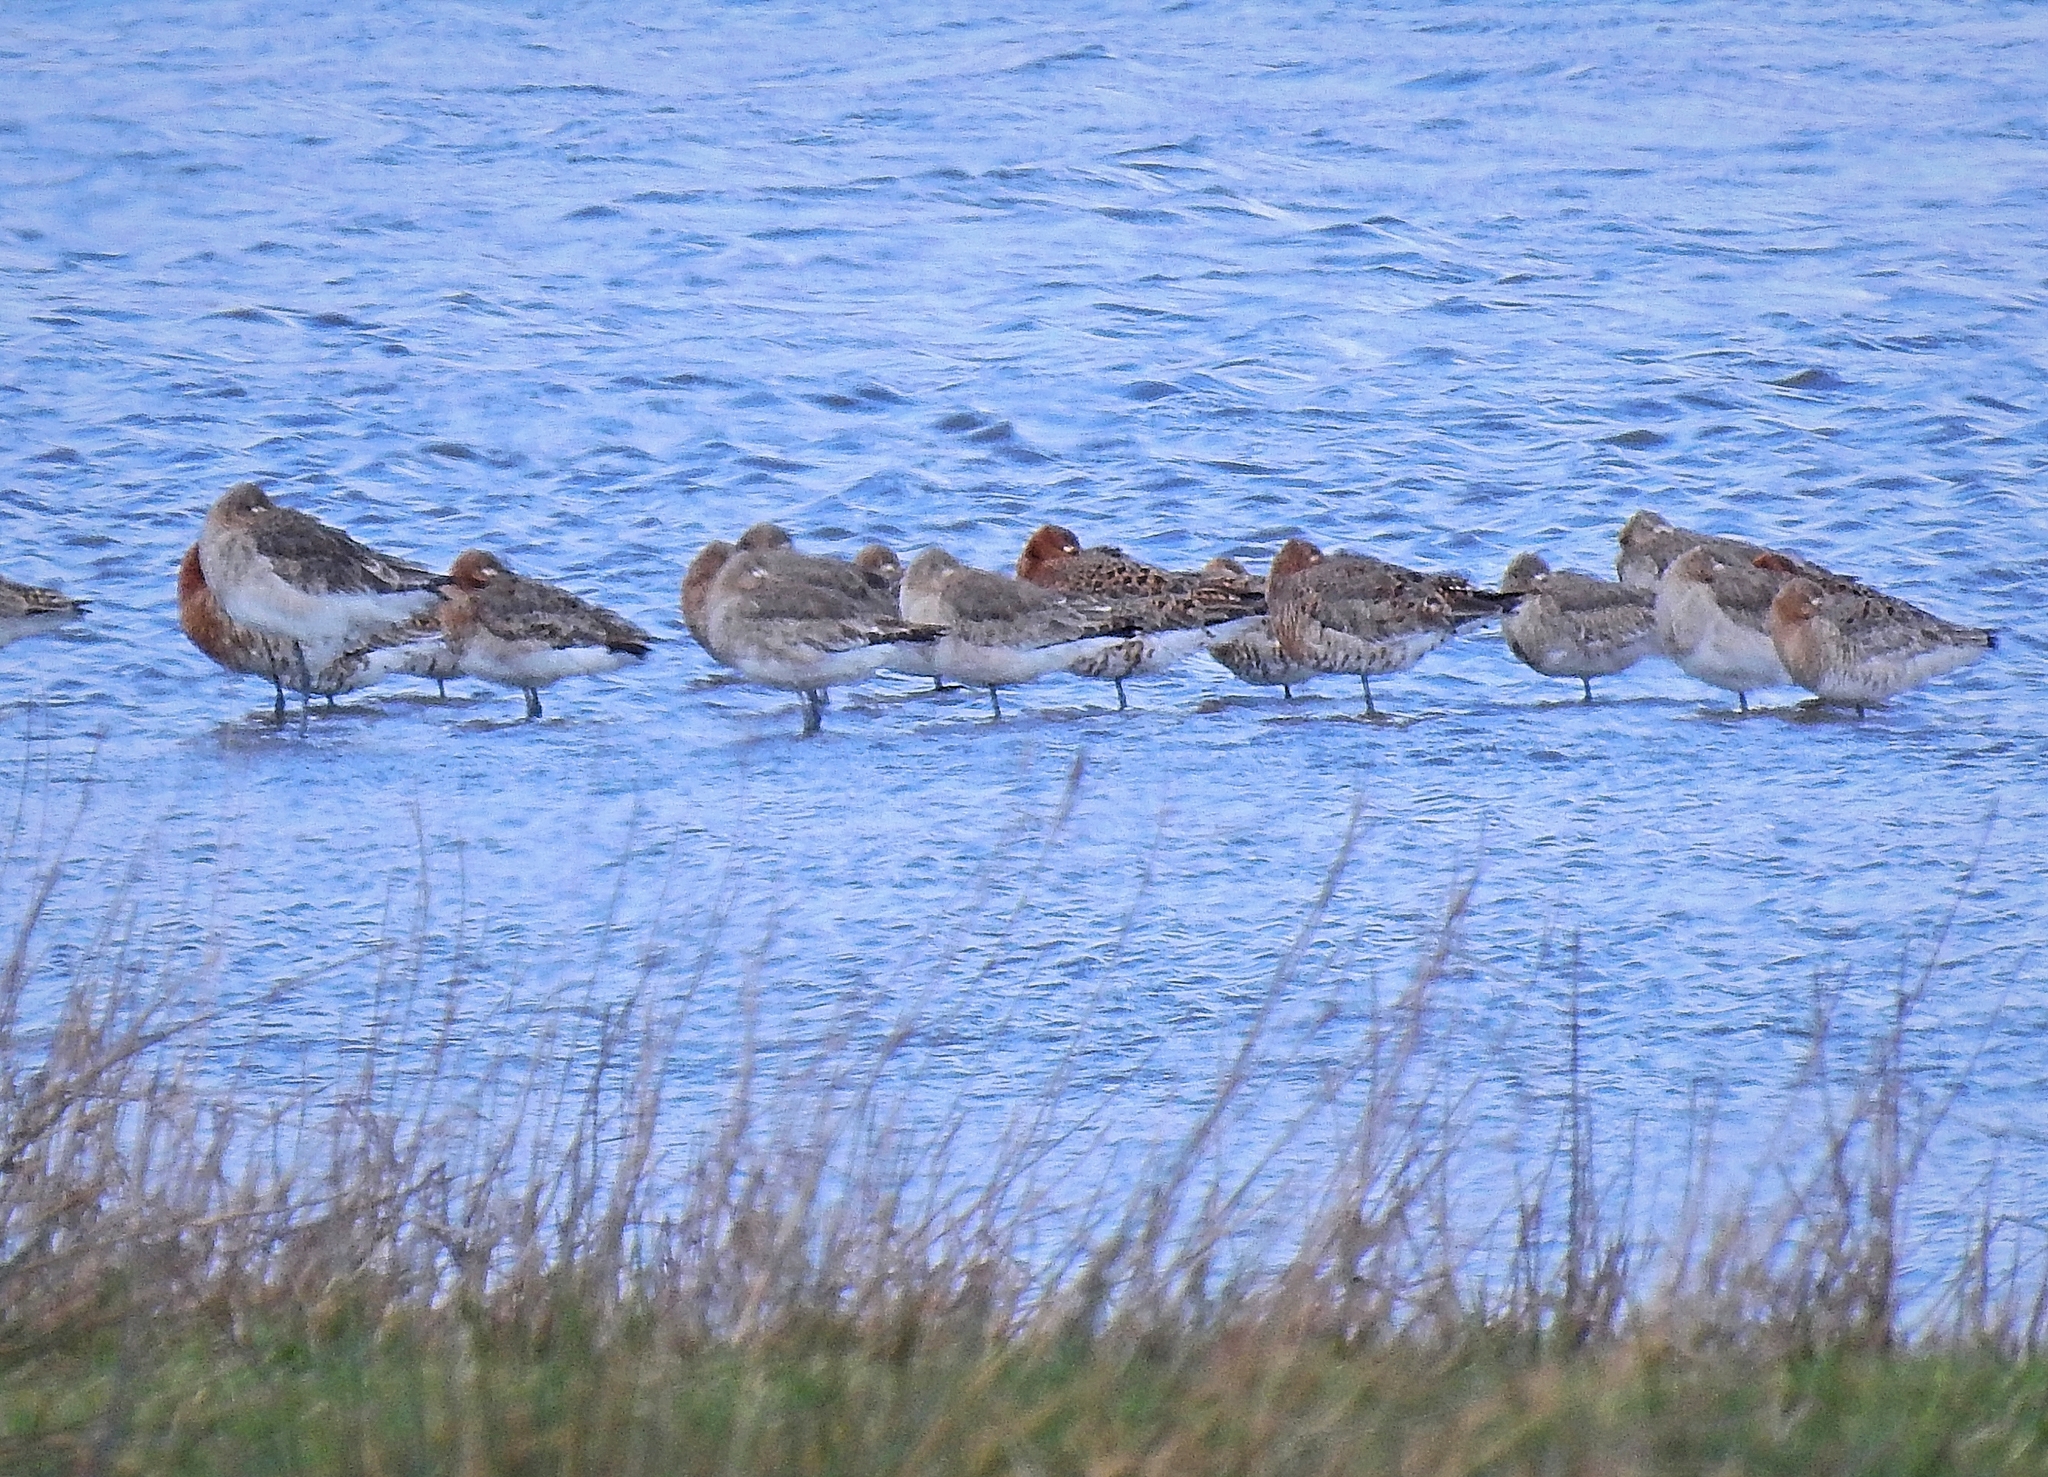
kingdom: Animalia
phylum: Chordata
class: Aves
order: Charadriiformes
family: Scolopacidae
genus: Limosa
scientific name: Limosa limosa
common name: Black-tailed godwit
